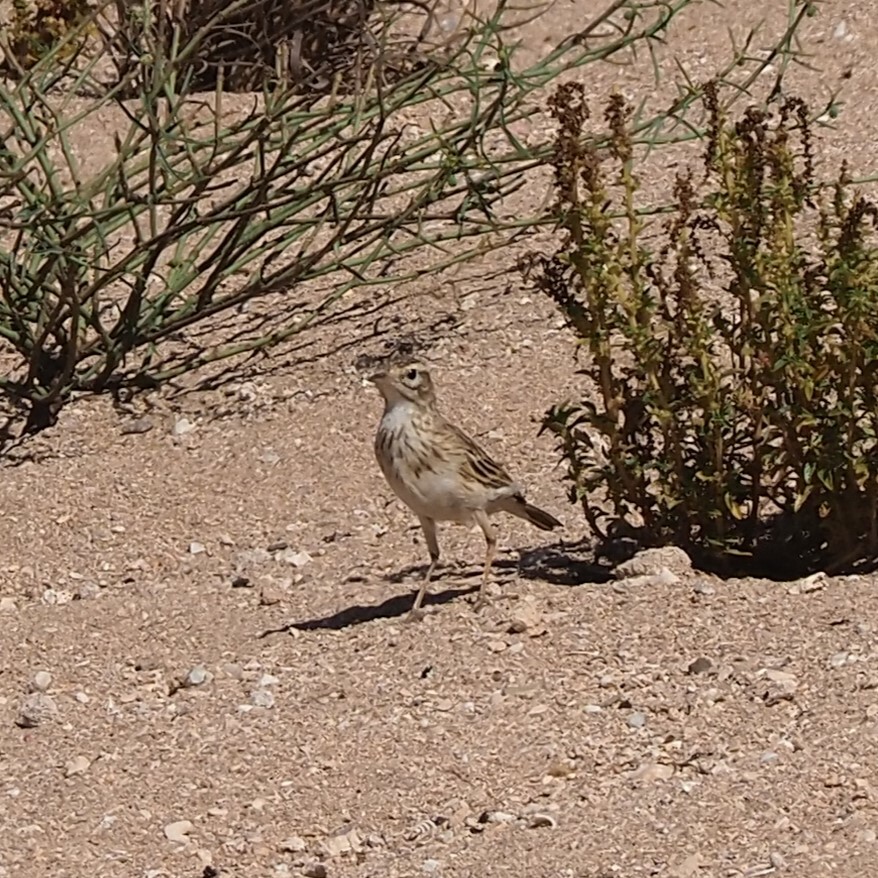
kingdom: Animalia
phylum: Chordata
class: Aves
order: Passeriformes
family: Motacillidae
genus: Anthus
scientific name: Anthus australis
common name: Australian pipit
